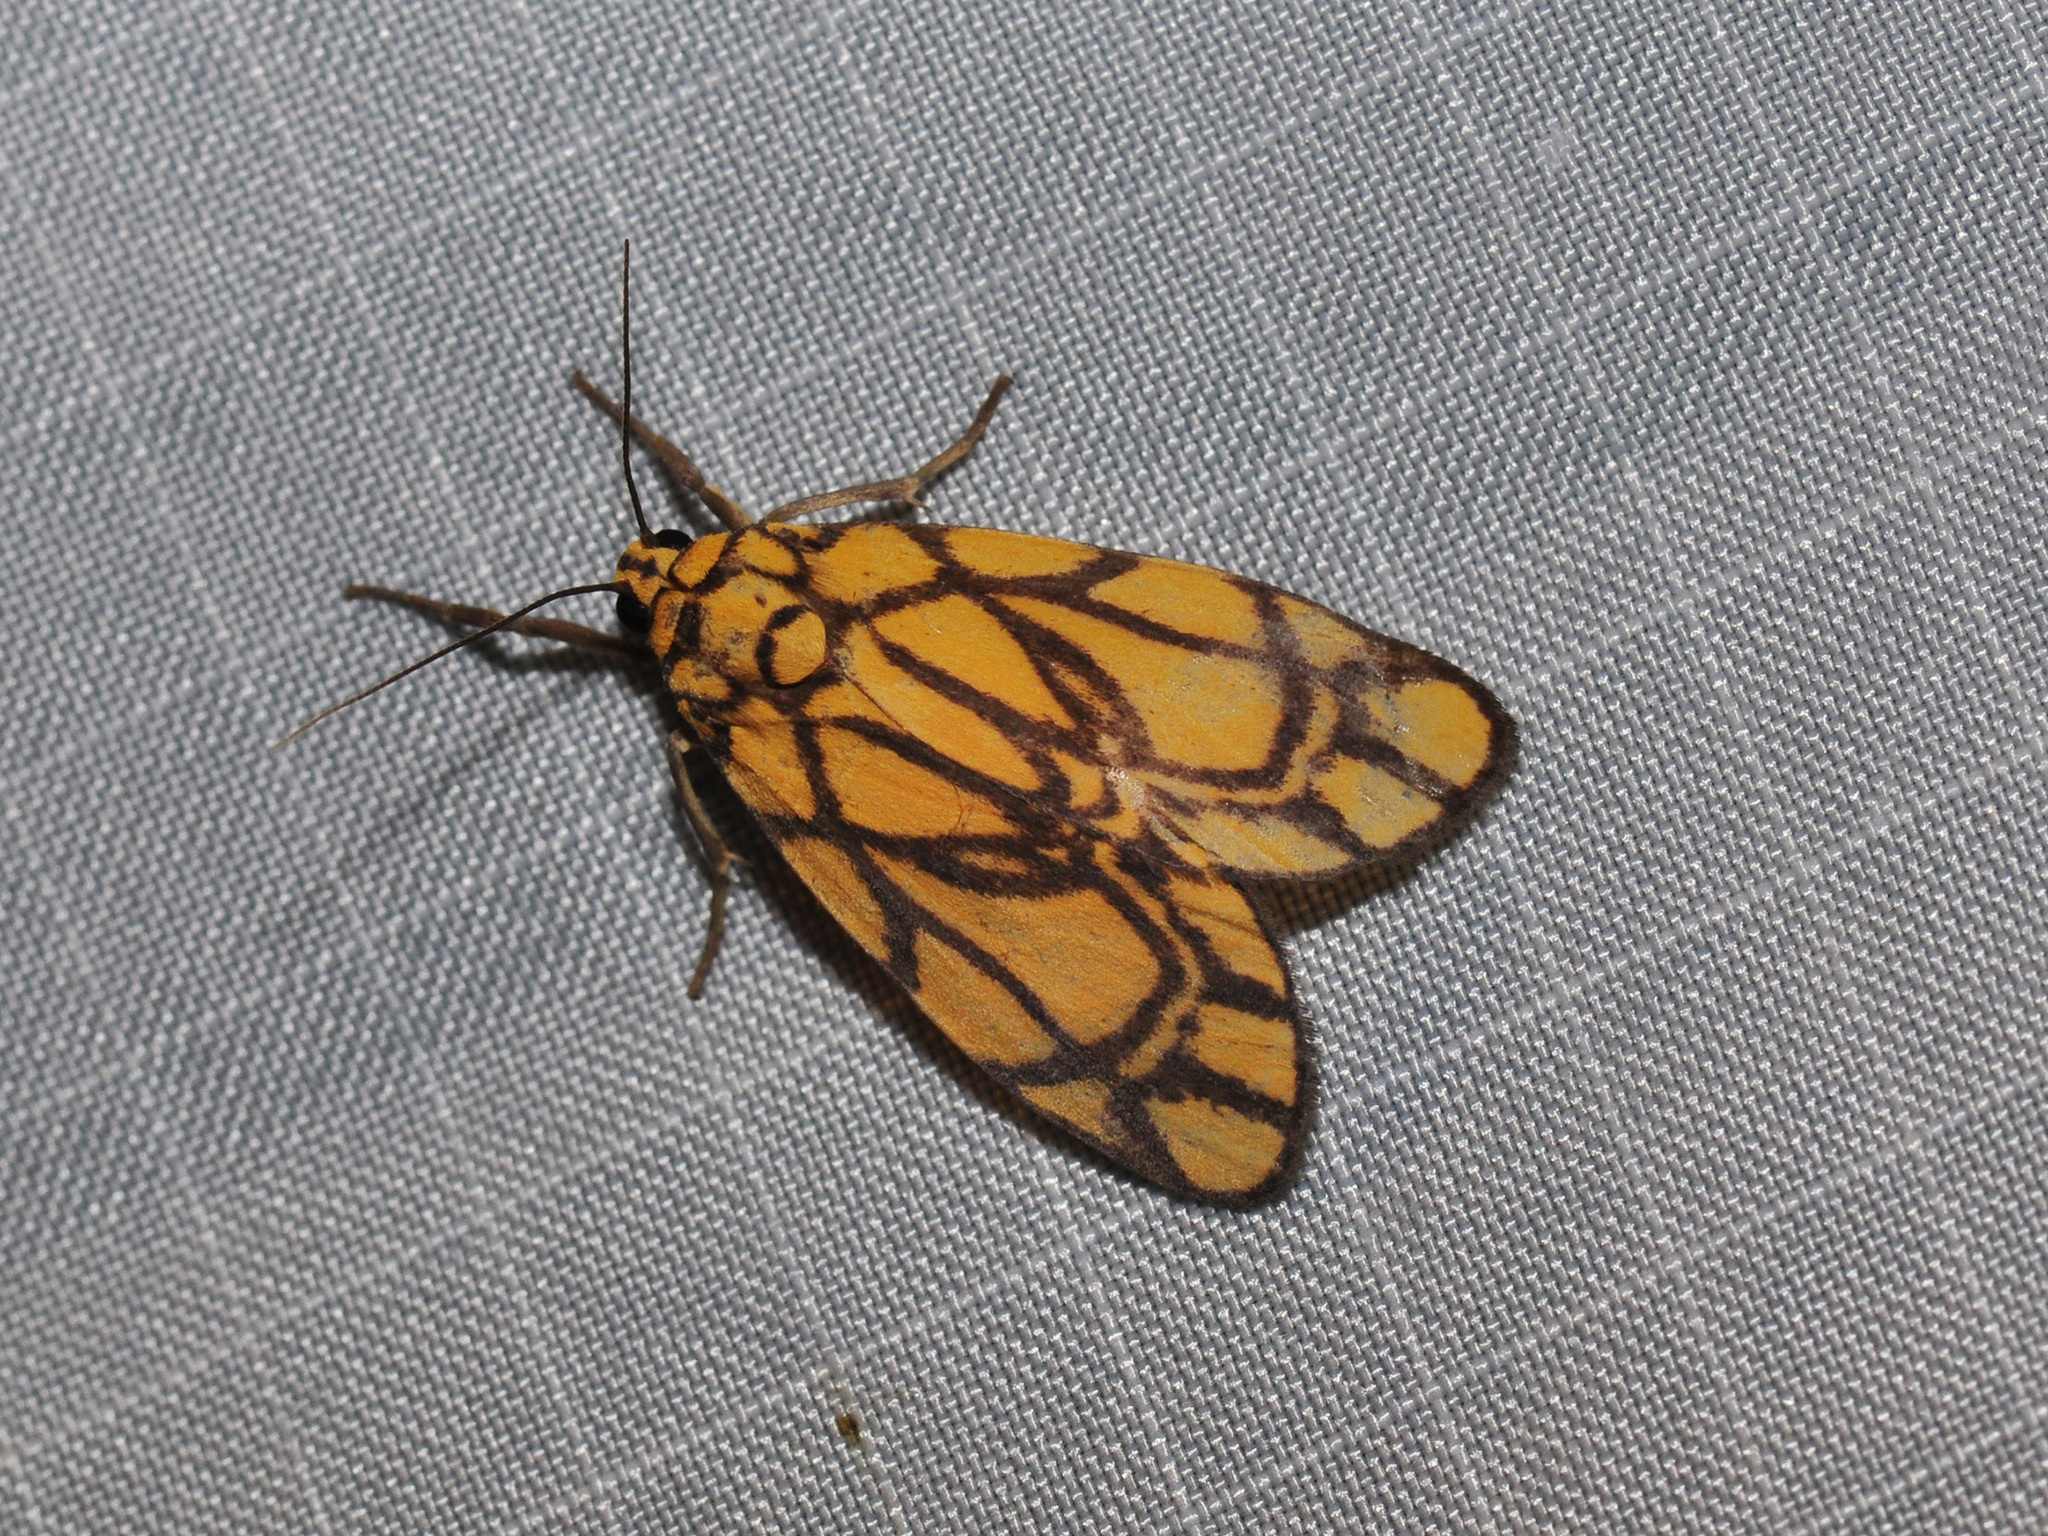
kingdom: Animalia
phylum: Arthropoda
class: Insecta
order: Lepidoptera
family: Erebidae
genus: Cyme
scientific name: Cyme euprepioides
